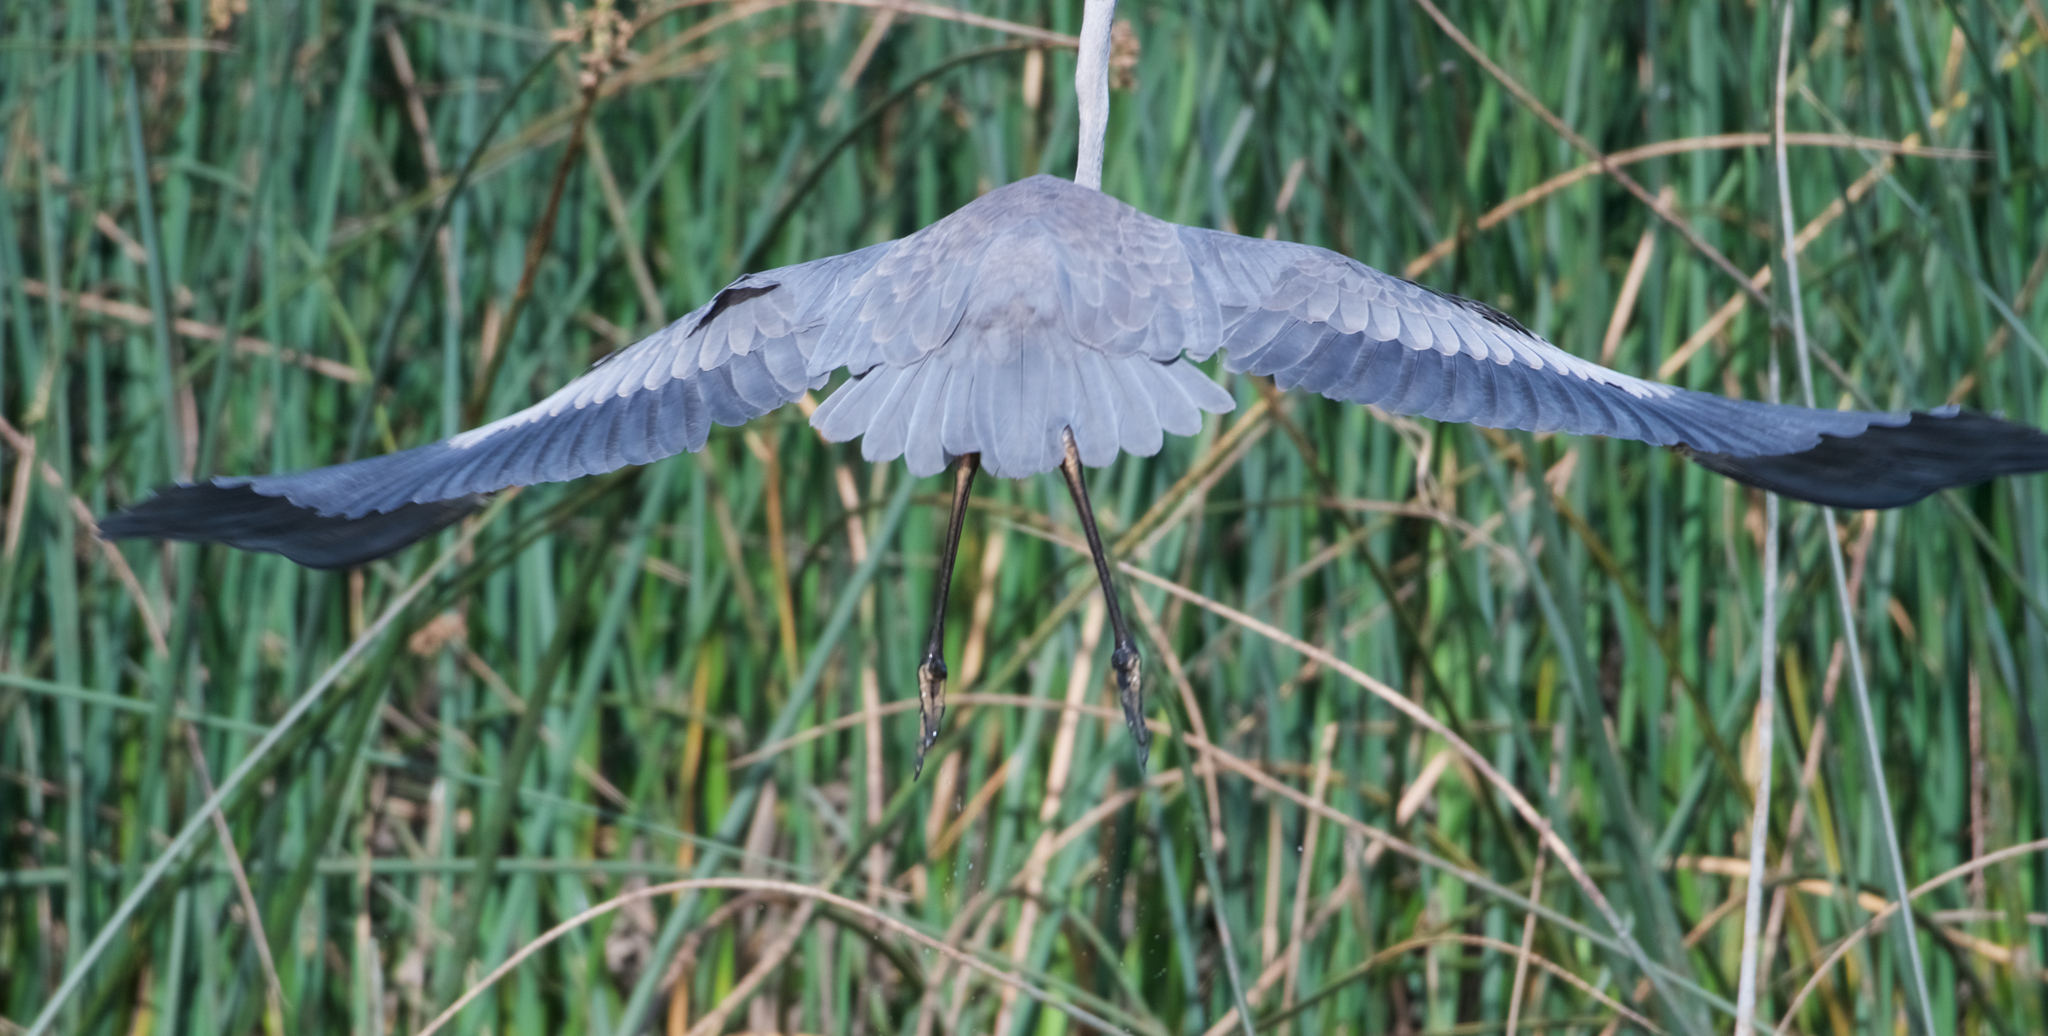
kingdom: Animalia
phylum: Chordata
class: Aves
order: Pelecaniformes
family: Ardeidae
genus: Ardea
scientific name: Ardea herodias
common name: Great blue heron
